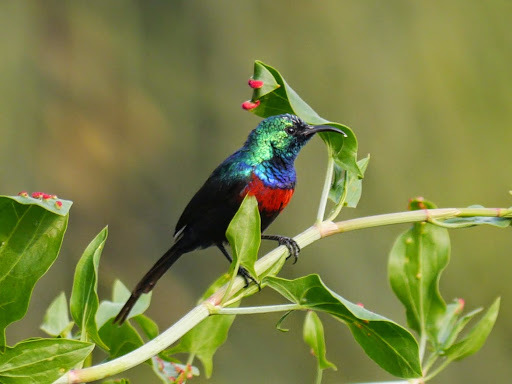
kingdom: Animalia
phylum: Chordata
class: Aves
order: Passeriformes
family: Nectariniidae
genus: Cinnyris
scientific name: Cinnyris erythrocercus
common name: Red-chested sunbird
